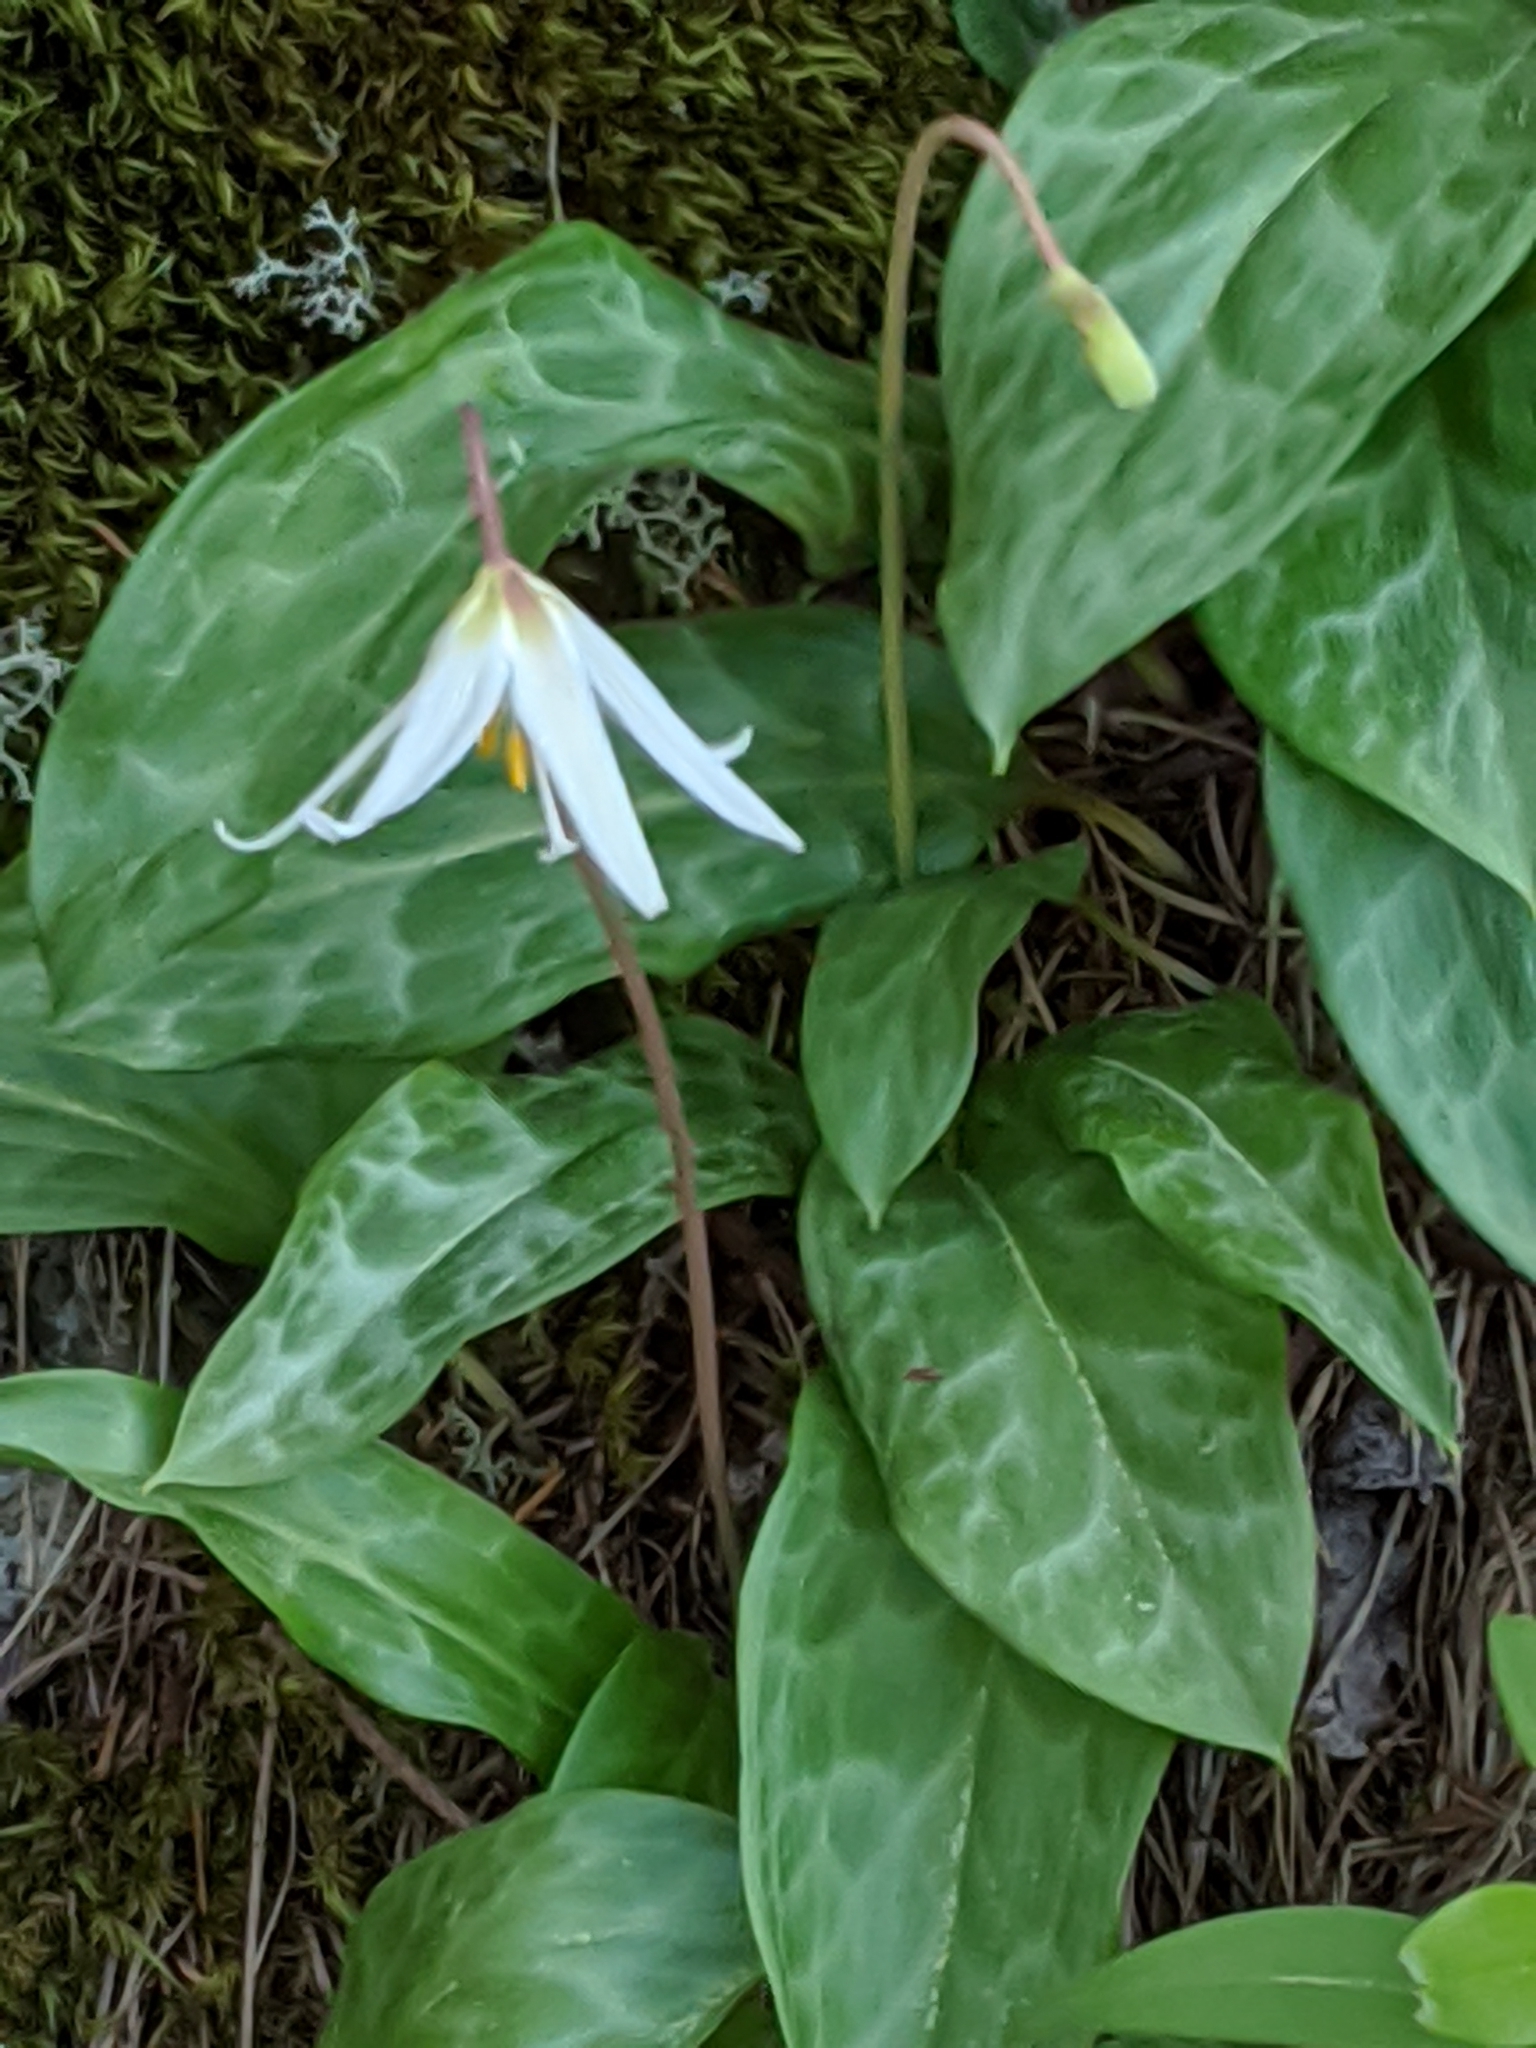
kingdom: Plantae
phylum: Tracheophyta
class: Liliopsida
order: Liliales
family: Liliaceae
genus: Erythronium
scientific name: Erythronium oregonum
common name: Giant adder's-tongue
